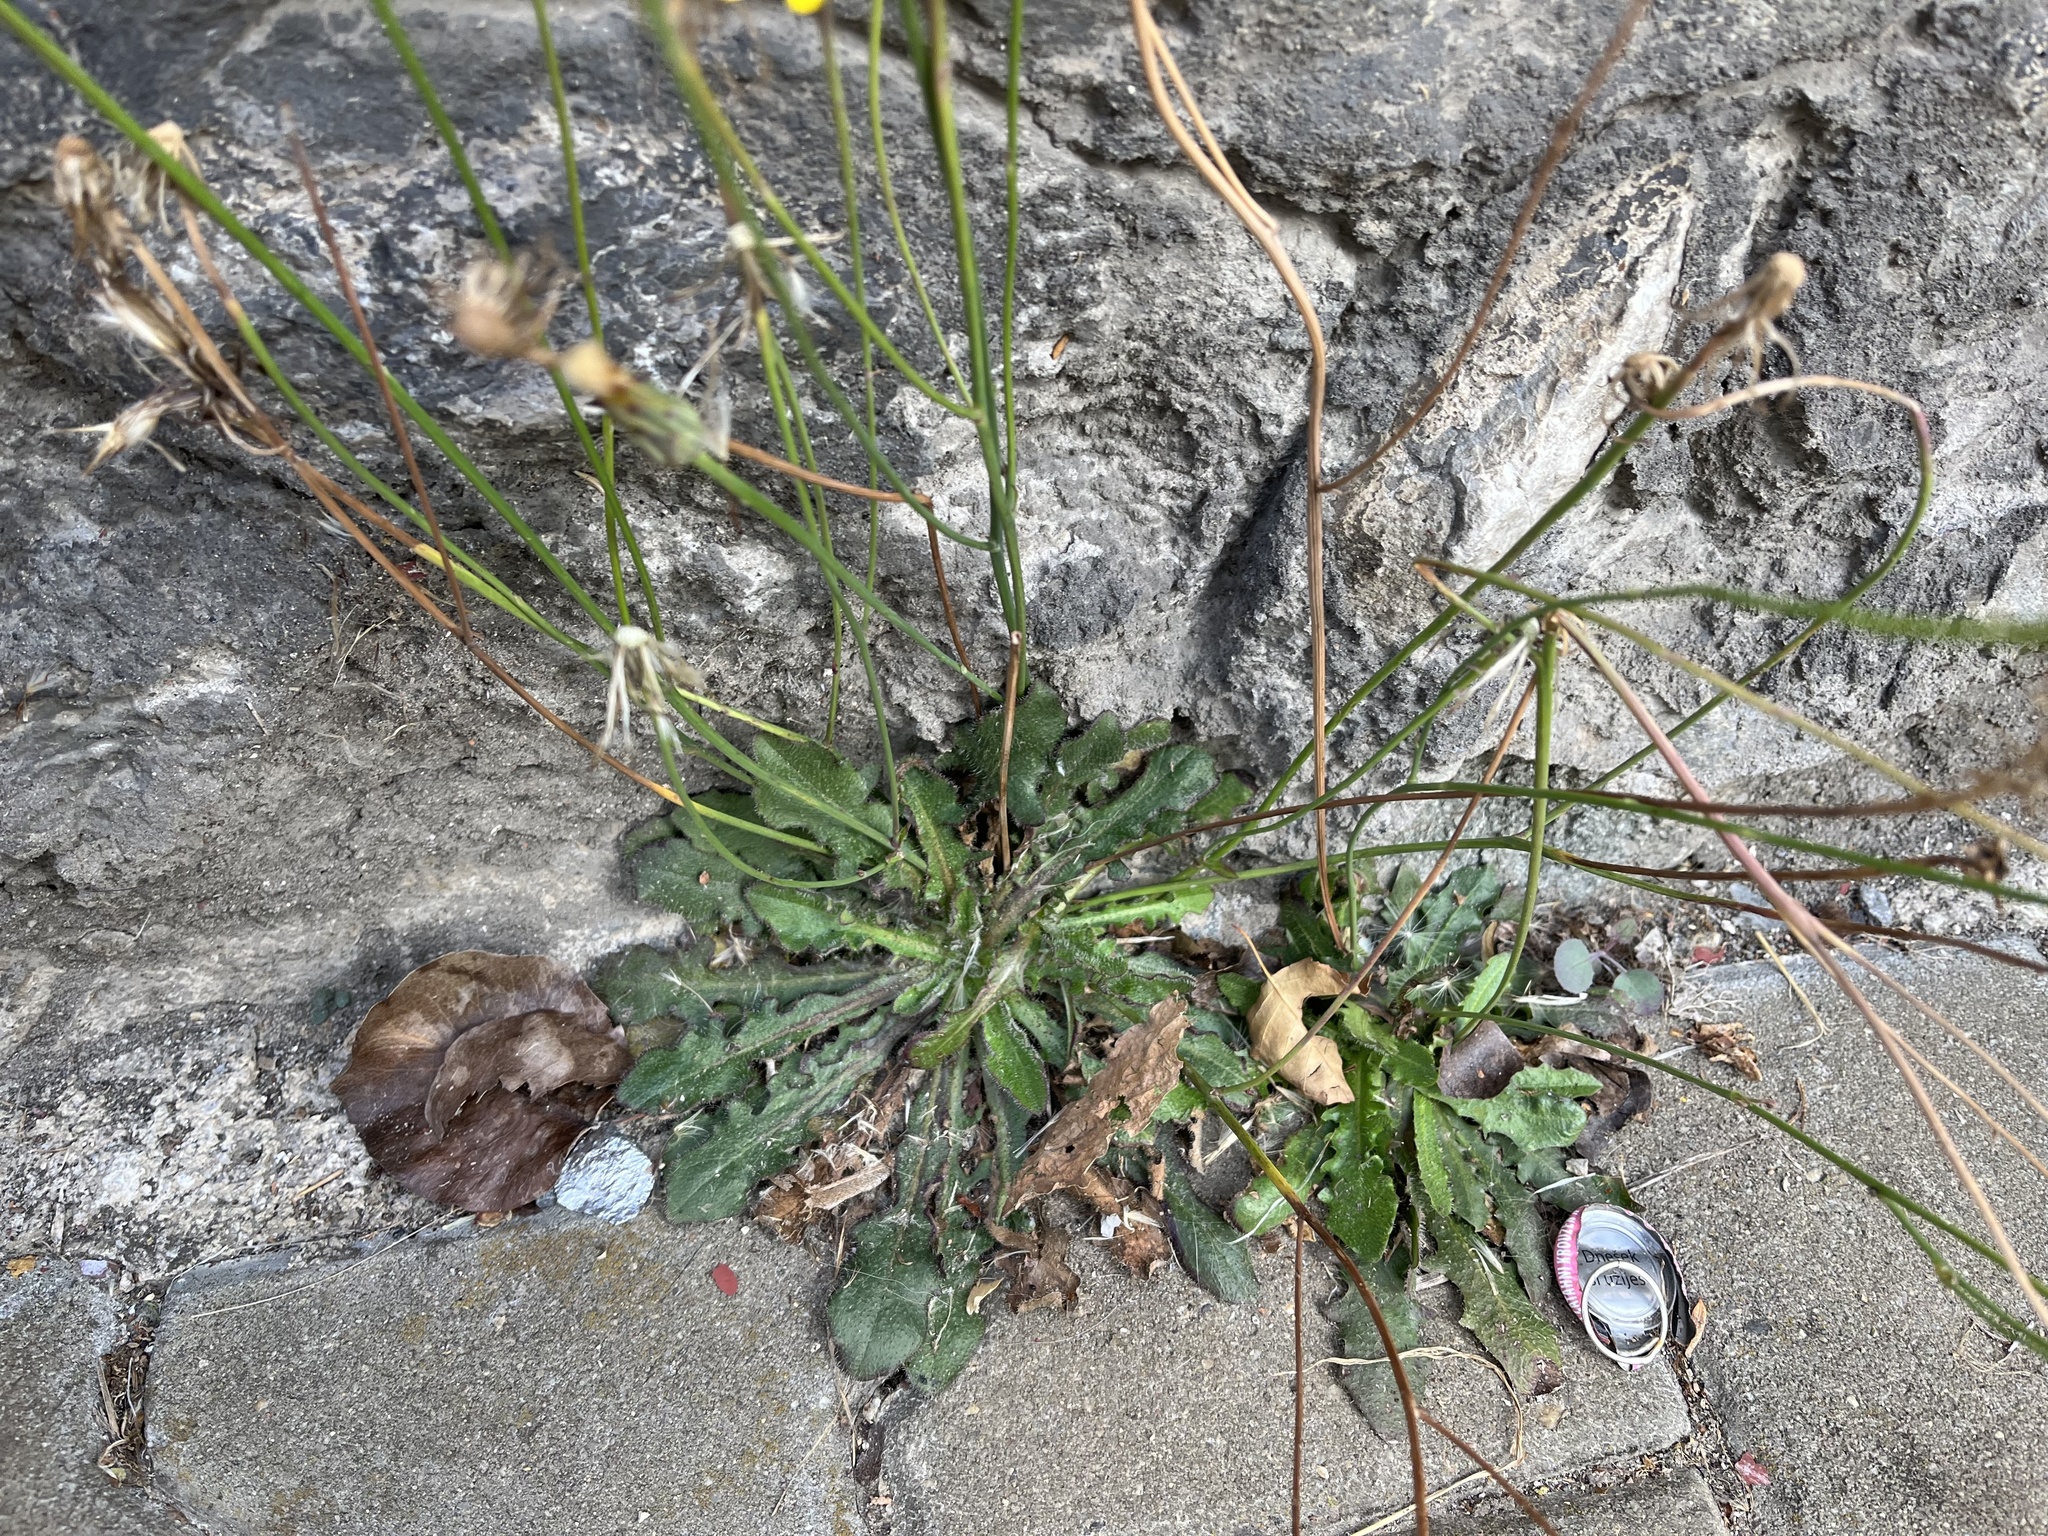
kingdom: Plantae
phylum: Tracheophyta
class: Magnoliopsida
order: Asterales
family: Asteraceae
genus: Hypochaeris
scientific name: Hypochaeris radicata
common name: Flatweed
